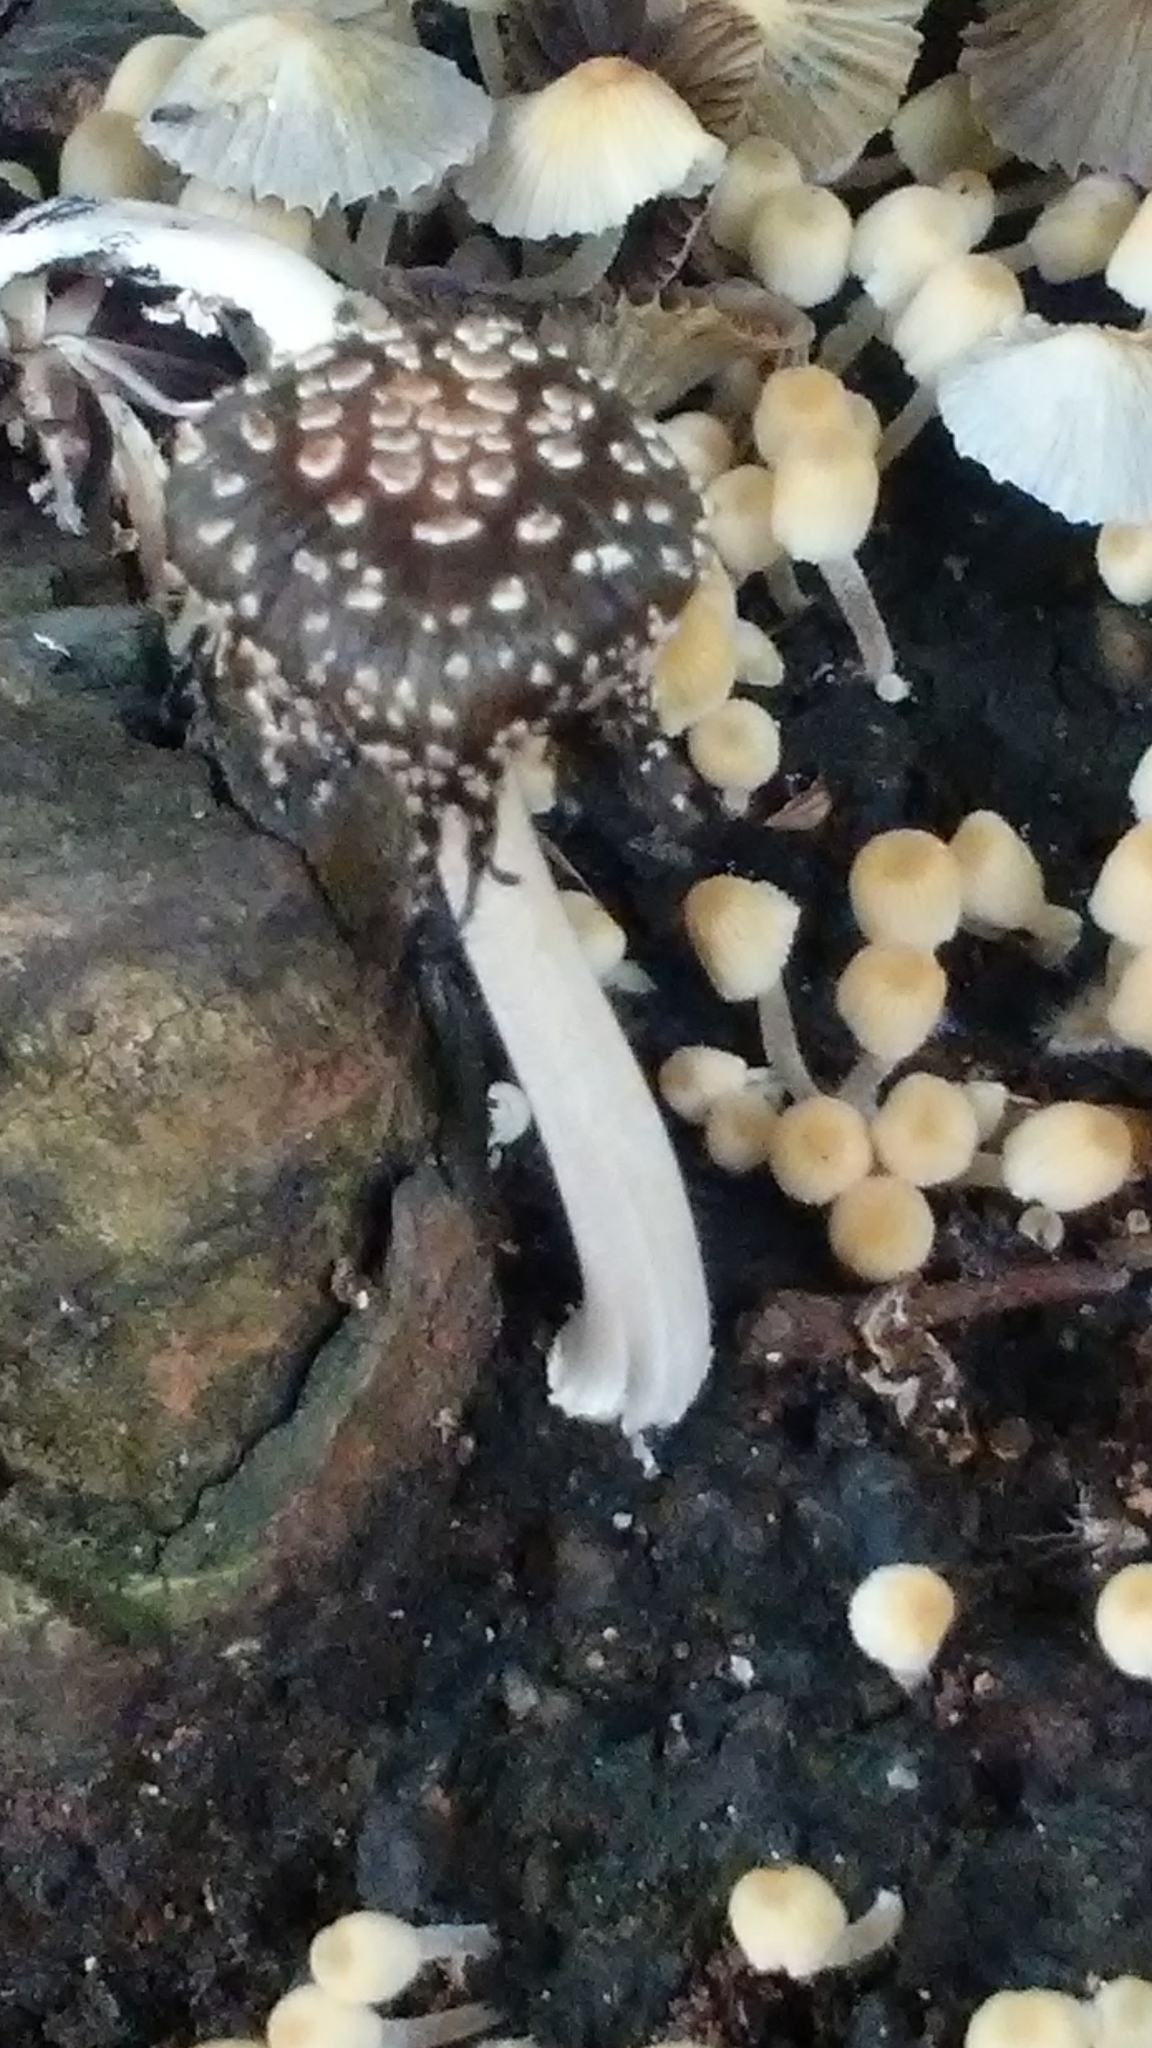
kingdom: Fungi
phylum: Basidiomycota
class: Agaricomycetes
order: Agaricales
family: Psathyrellaceae
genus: Coprinopsis
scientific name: Coprinopsis picacea
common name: Magpie inkcap
